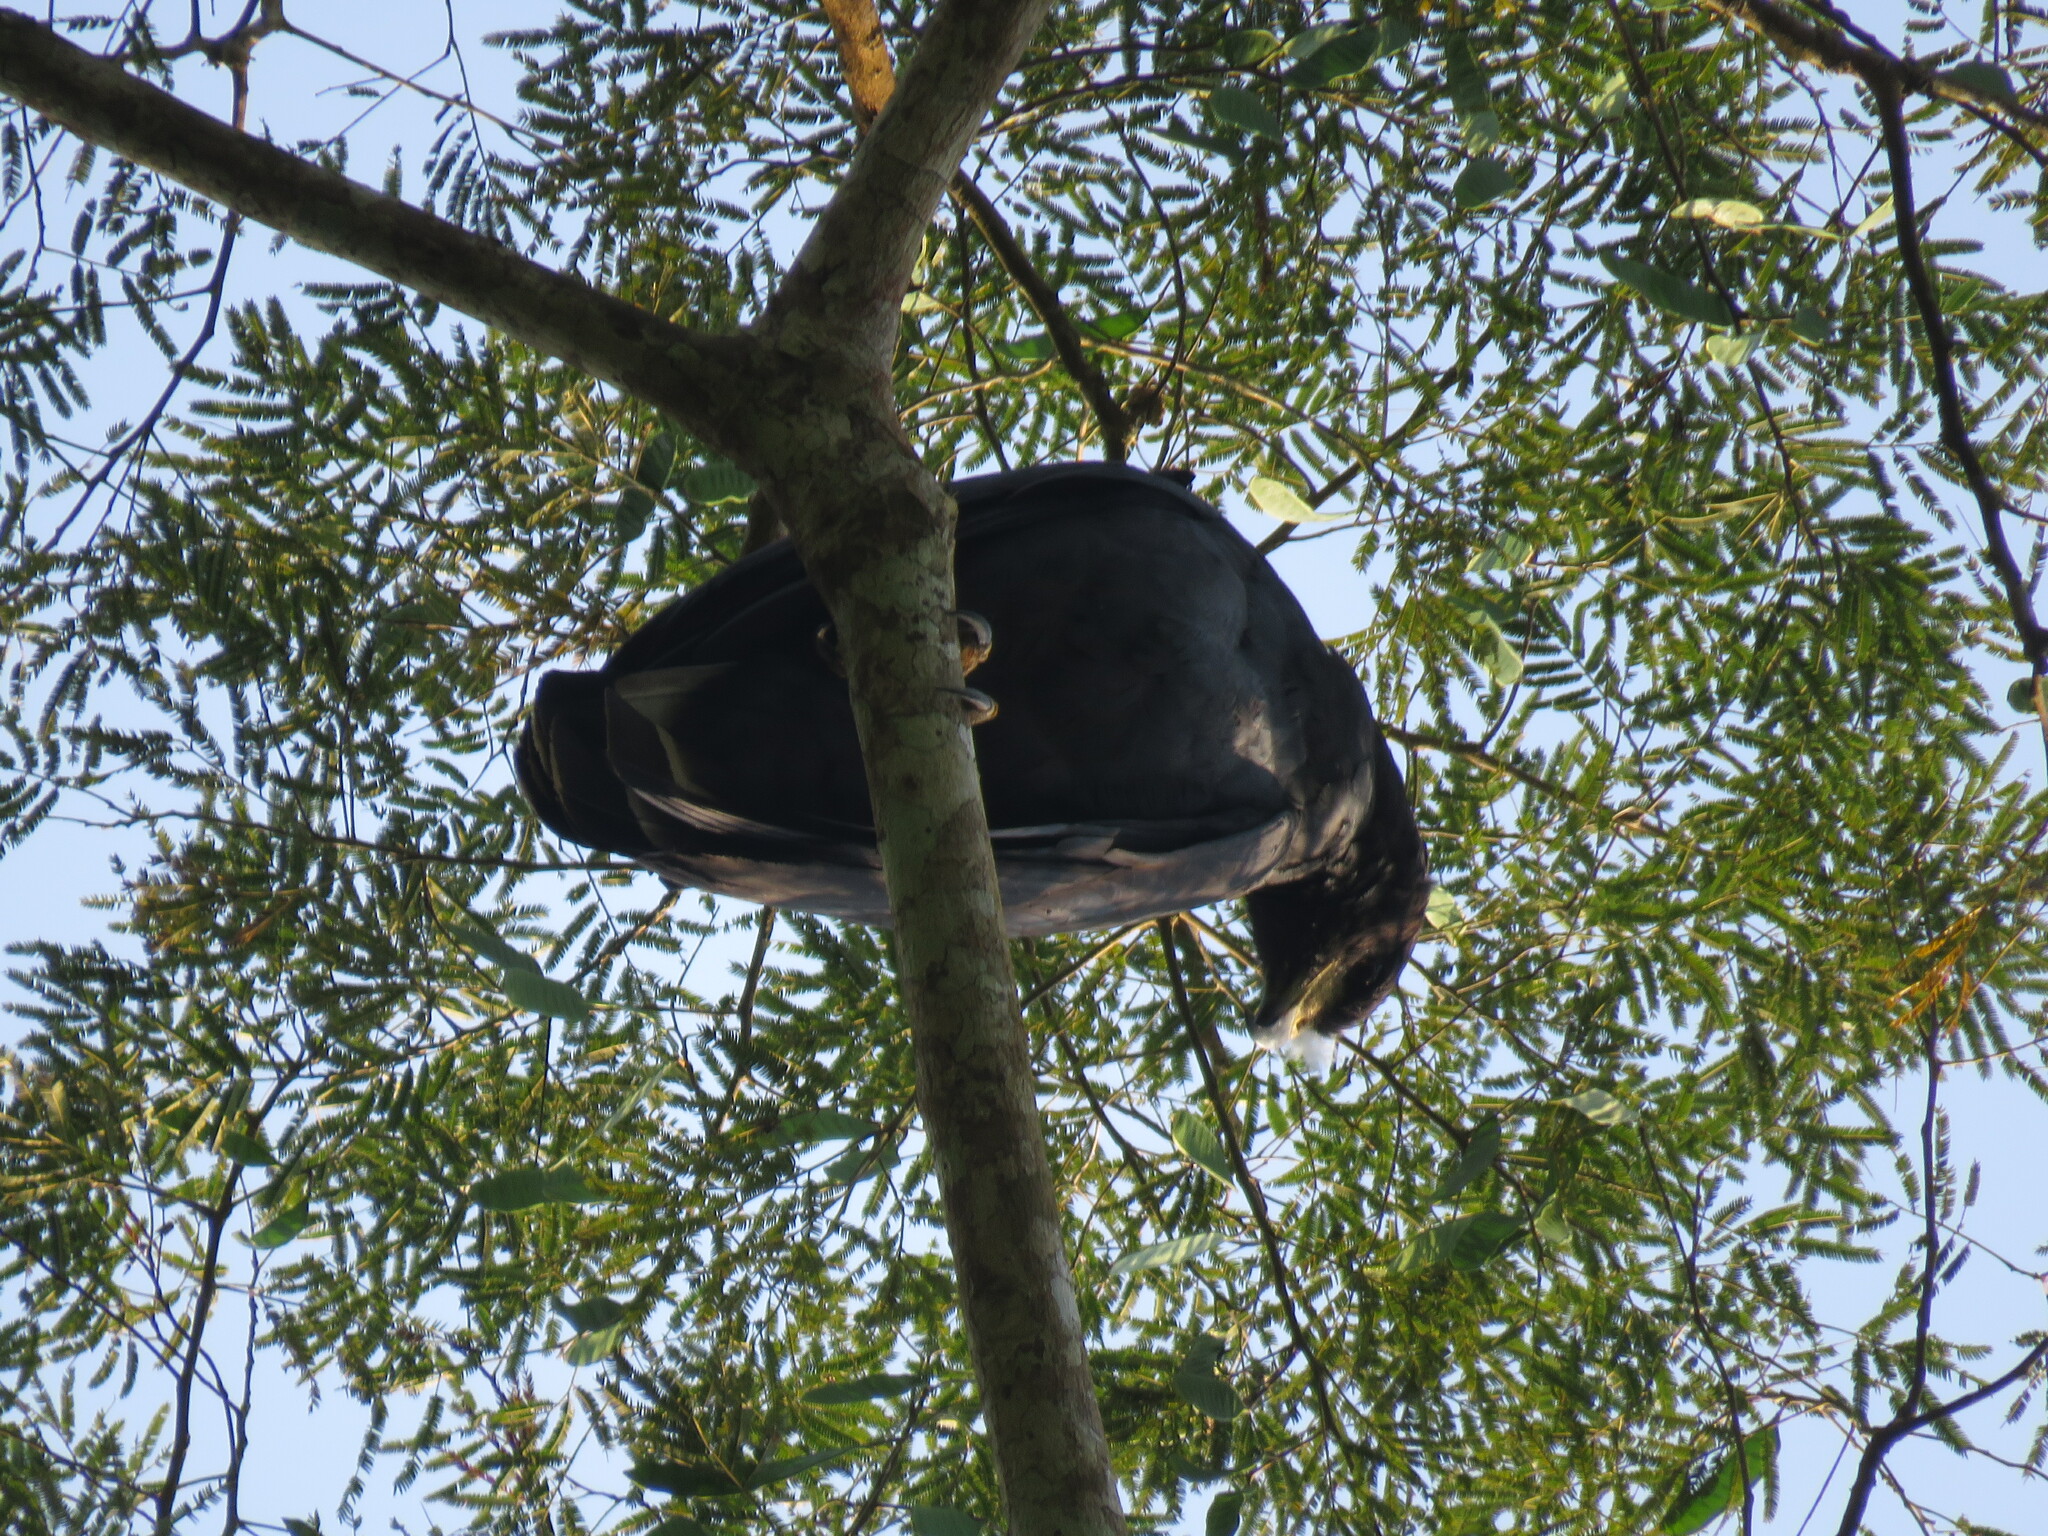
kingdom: Animalia
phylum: Chordata
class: Aves
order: Accipitriformes
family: Accipitridae
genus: Buteogallus
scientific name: Buteogallus urubitinga
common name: Great black hawk
